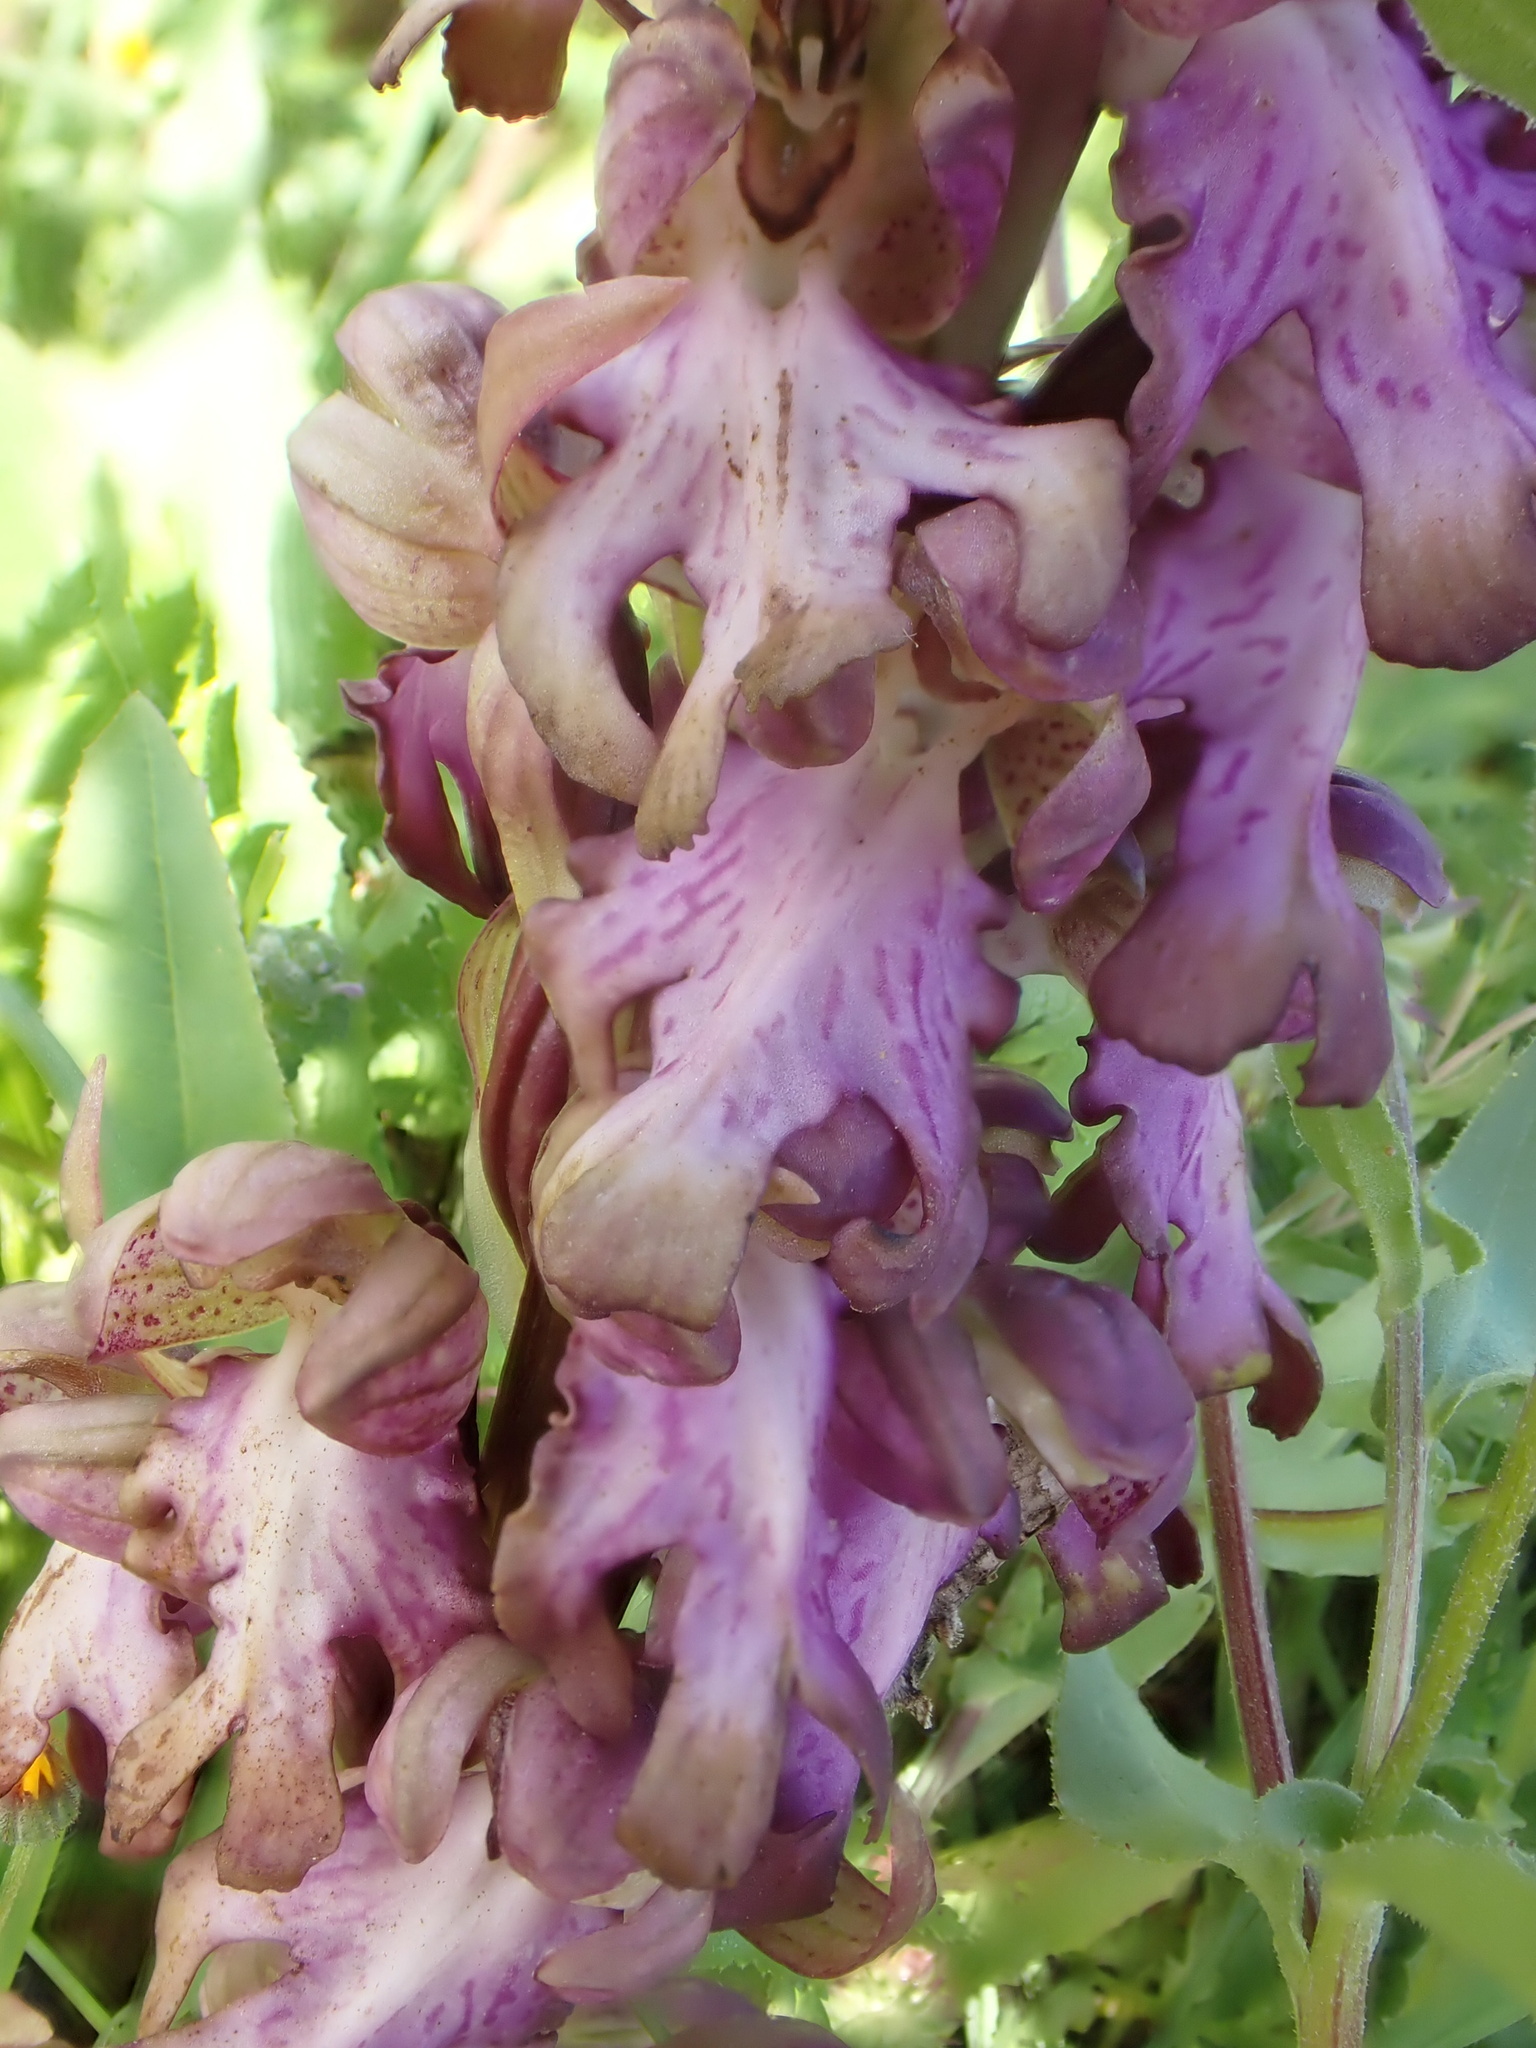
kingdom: Plantae
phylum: Tracheophyta
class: Liliopsida
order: Asparagales
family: Orchidaceae
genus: Himantoglossum
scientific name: Himantoglossum robertianum
